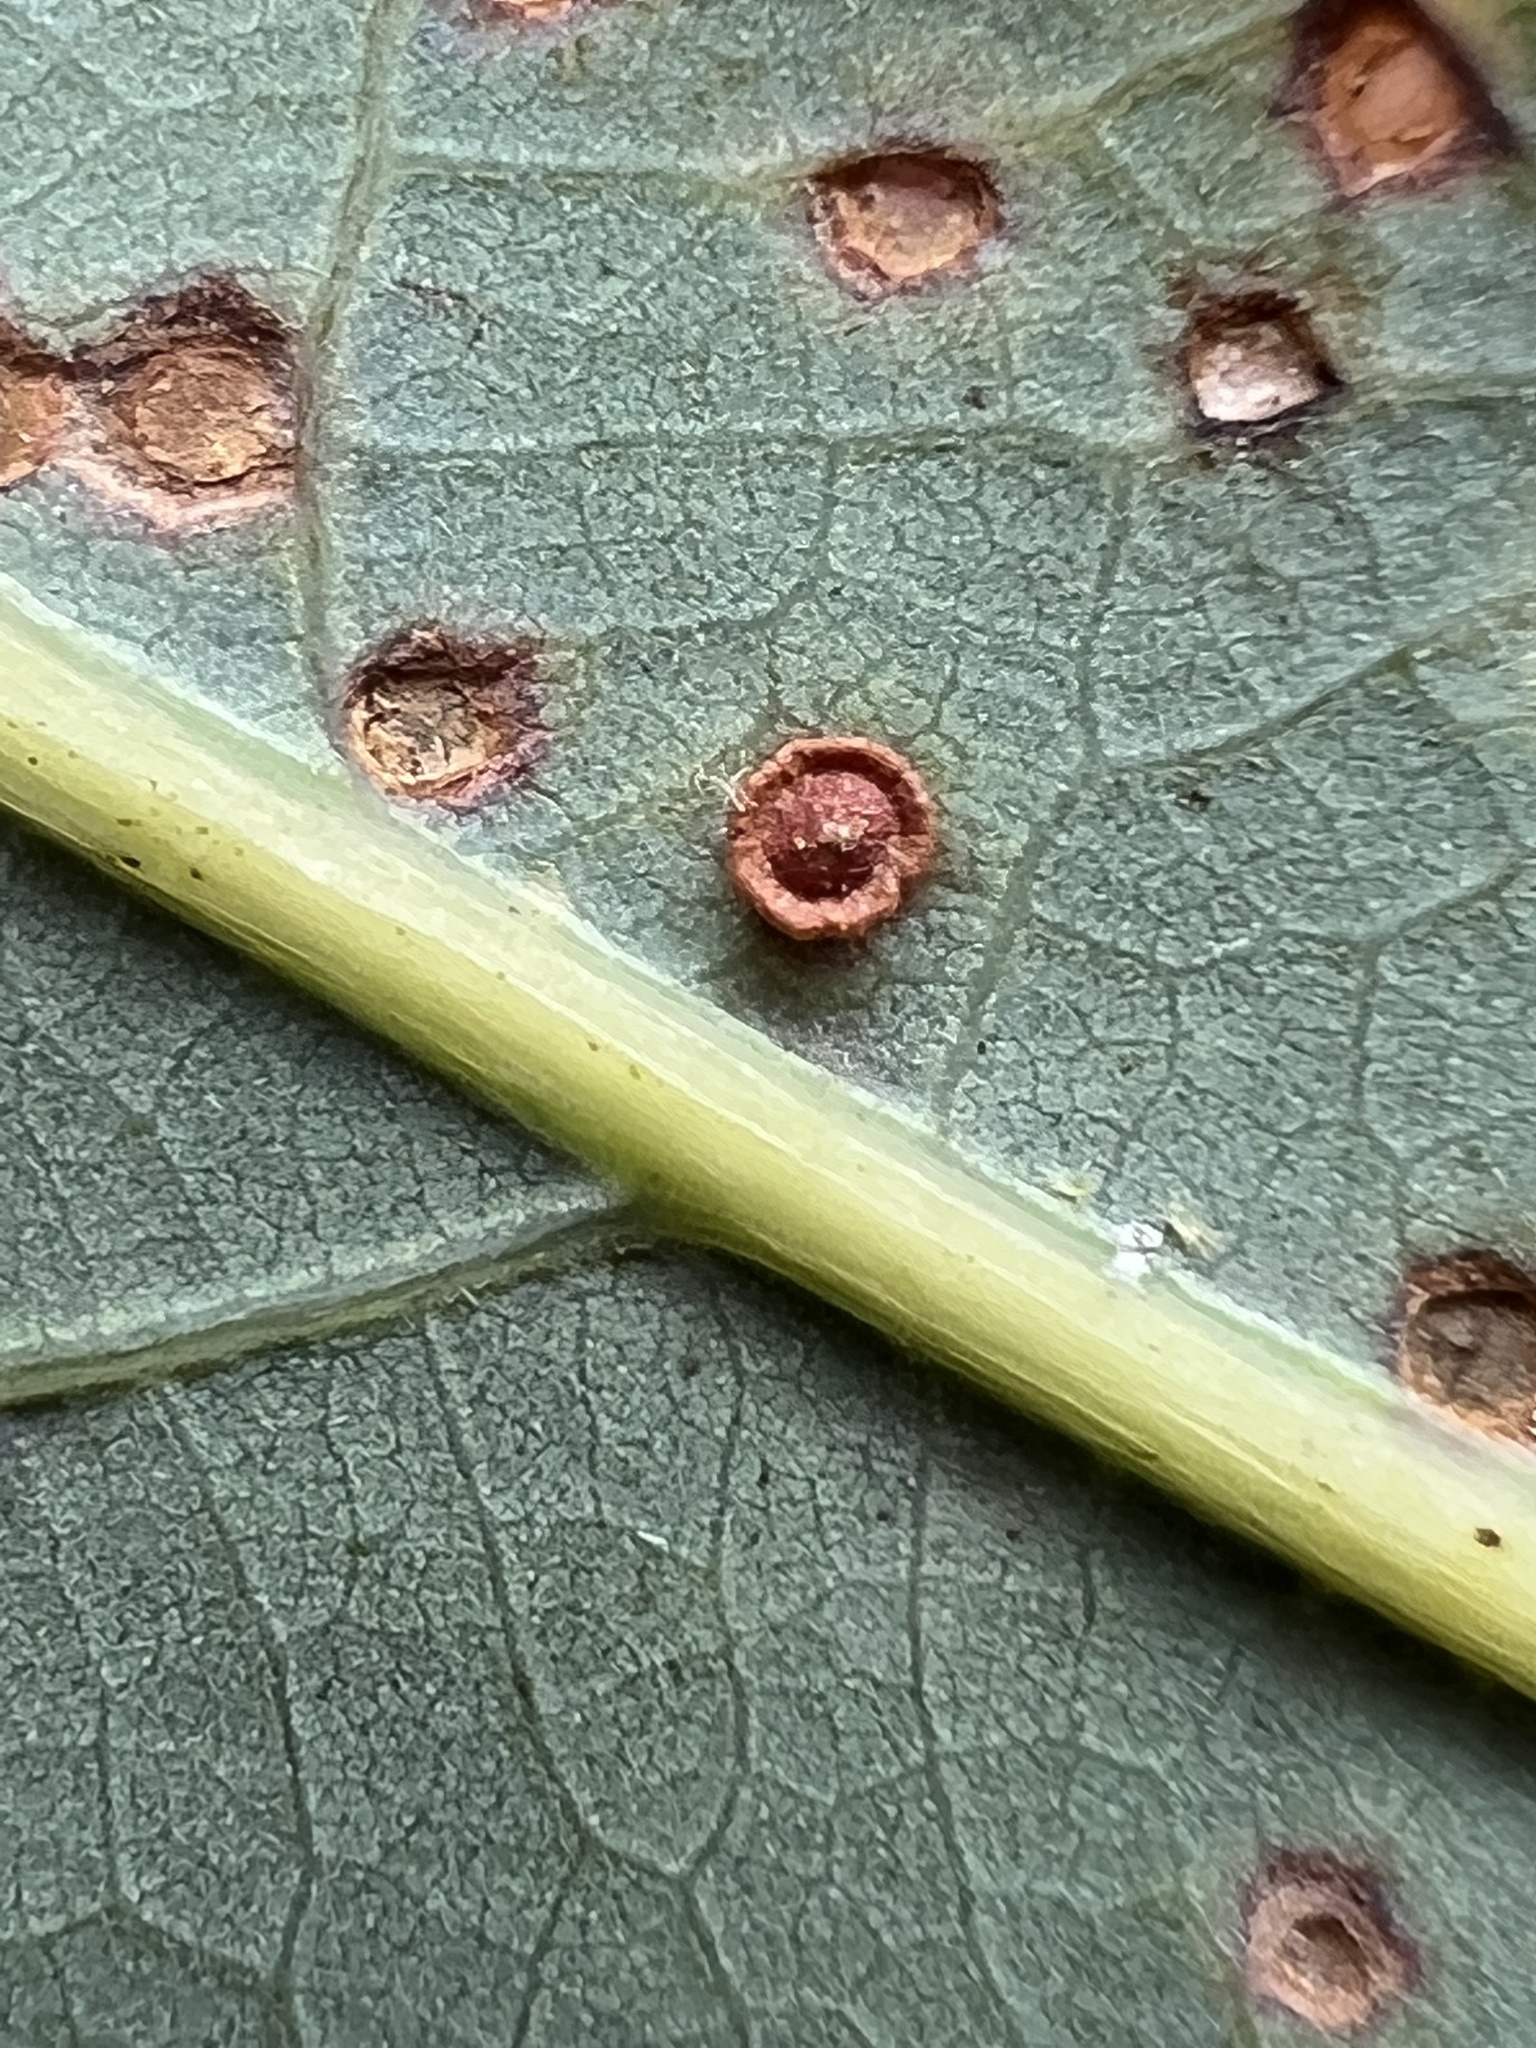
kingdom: Animalia
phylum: Arthropoda
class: Insecta
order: Hymenoptera
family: Cynipidae
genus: Neuroterus
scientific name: Neuroterus
